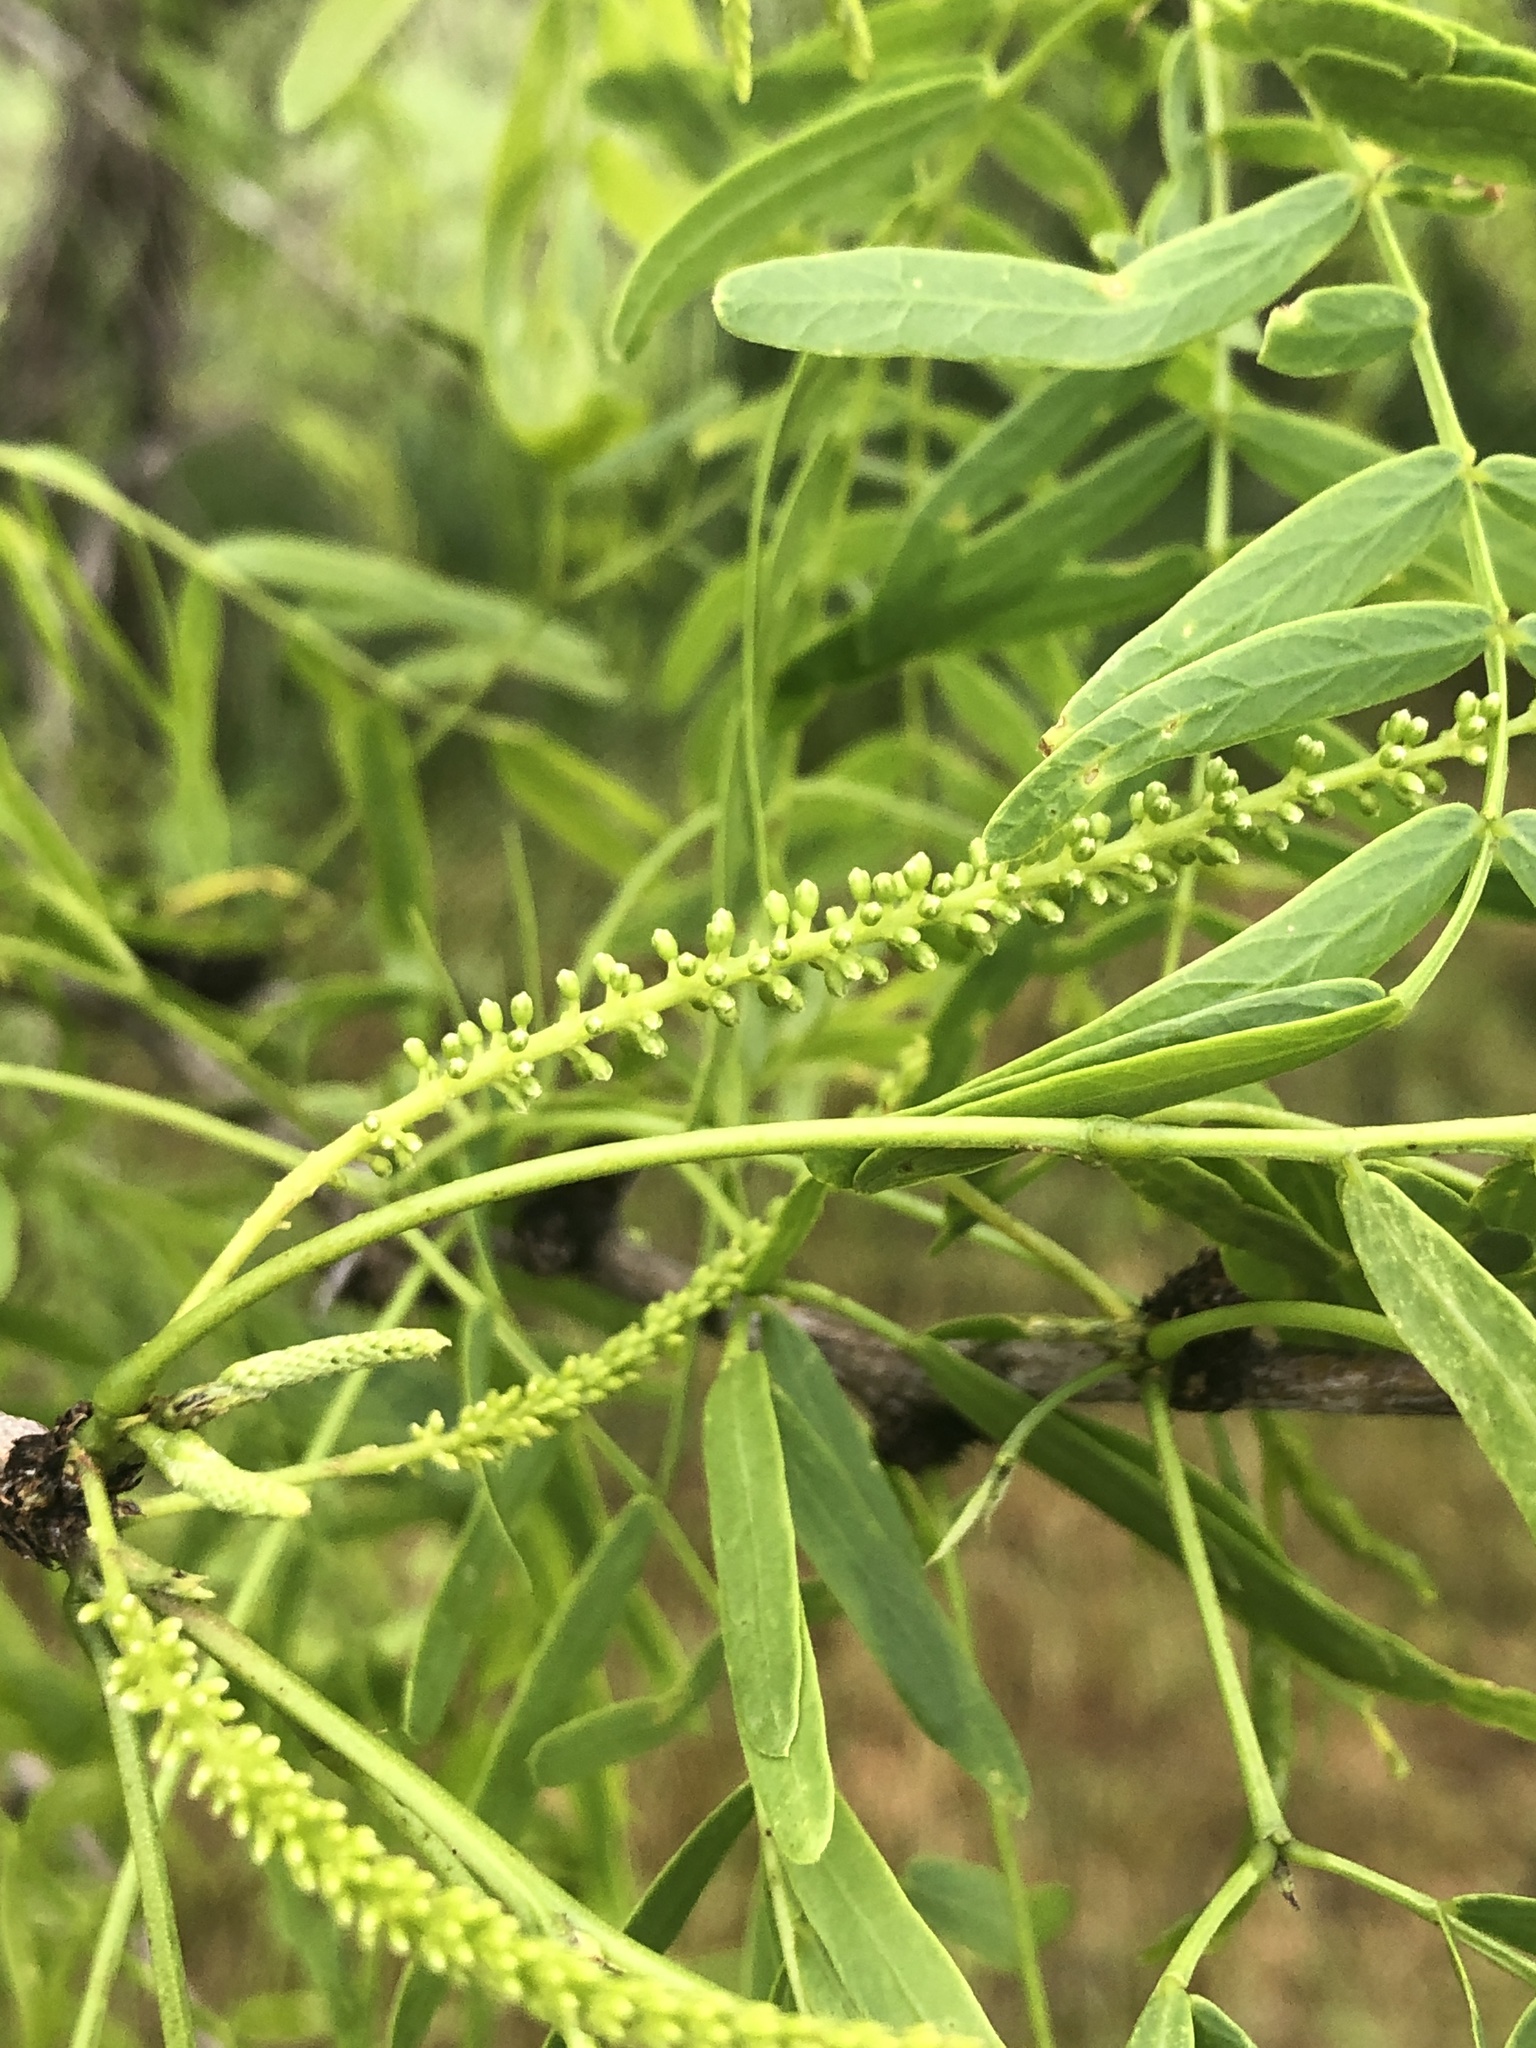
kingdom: Plantae
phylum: Tracheophyta
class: Magnoliopsida
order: Fabales
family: Fabaceae
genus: Prosopis
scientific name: Prosopis glandulosa
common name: Honey mesquite
